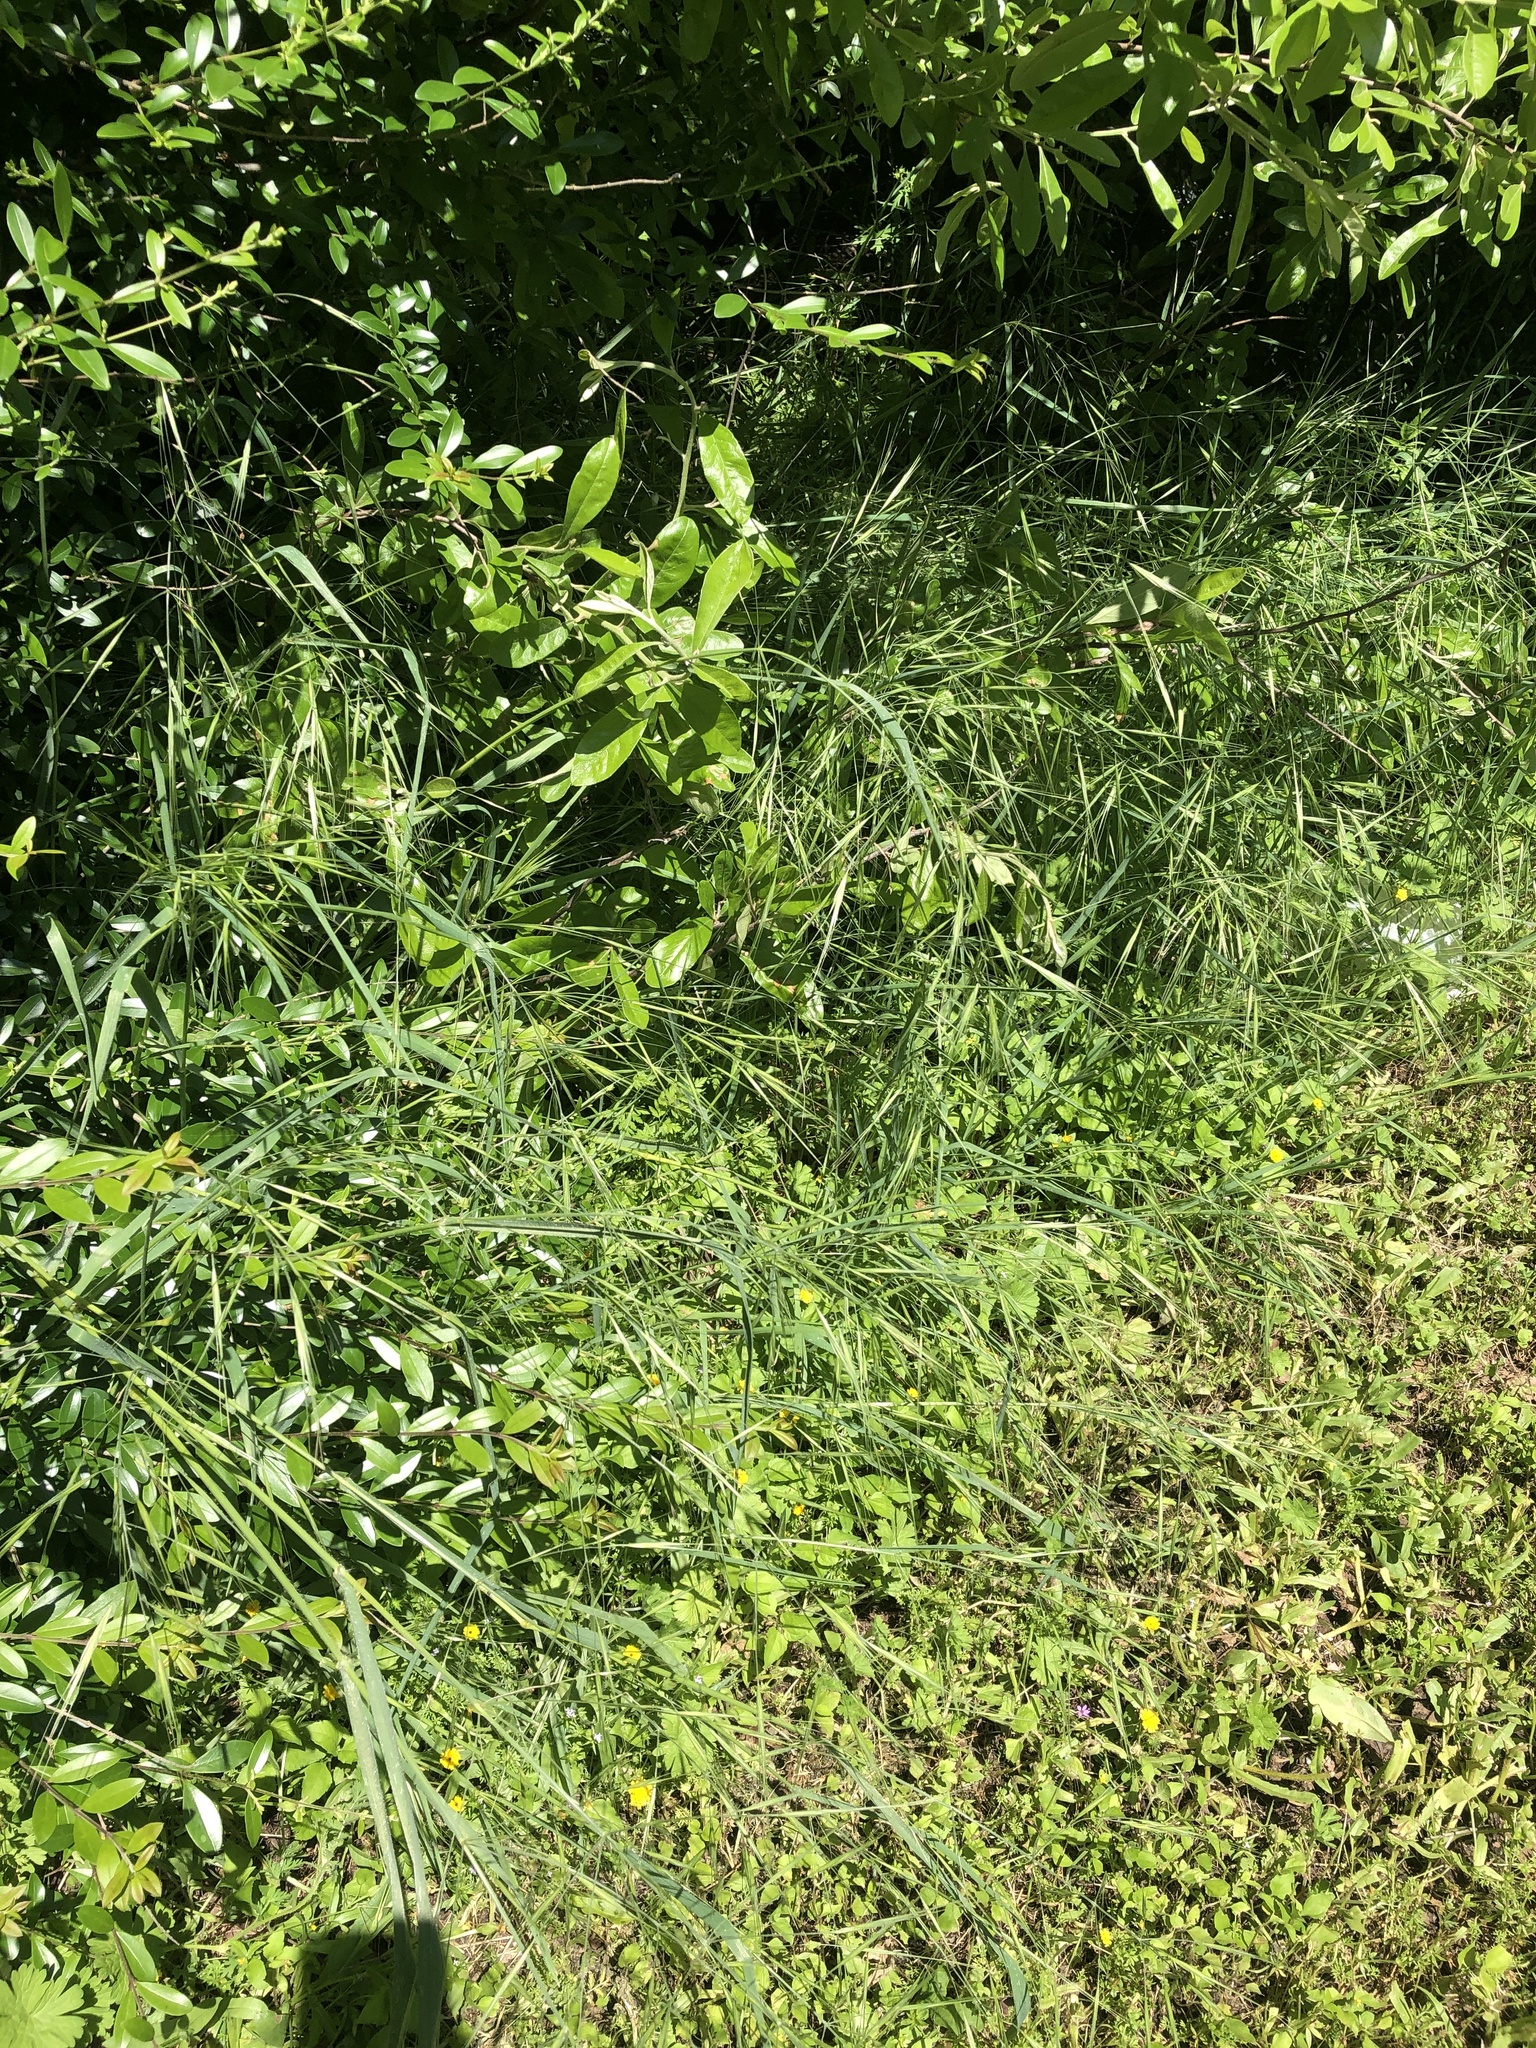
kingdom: Plantae
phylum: Tracheophyta
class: Liliopsida
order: Poales
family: Poaceae
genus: Bromus
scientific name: Bromus diandrus
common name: Ripgut brome
